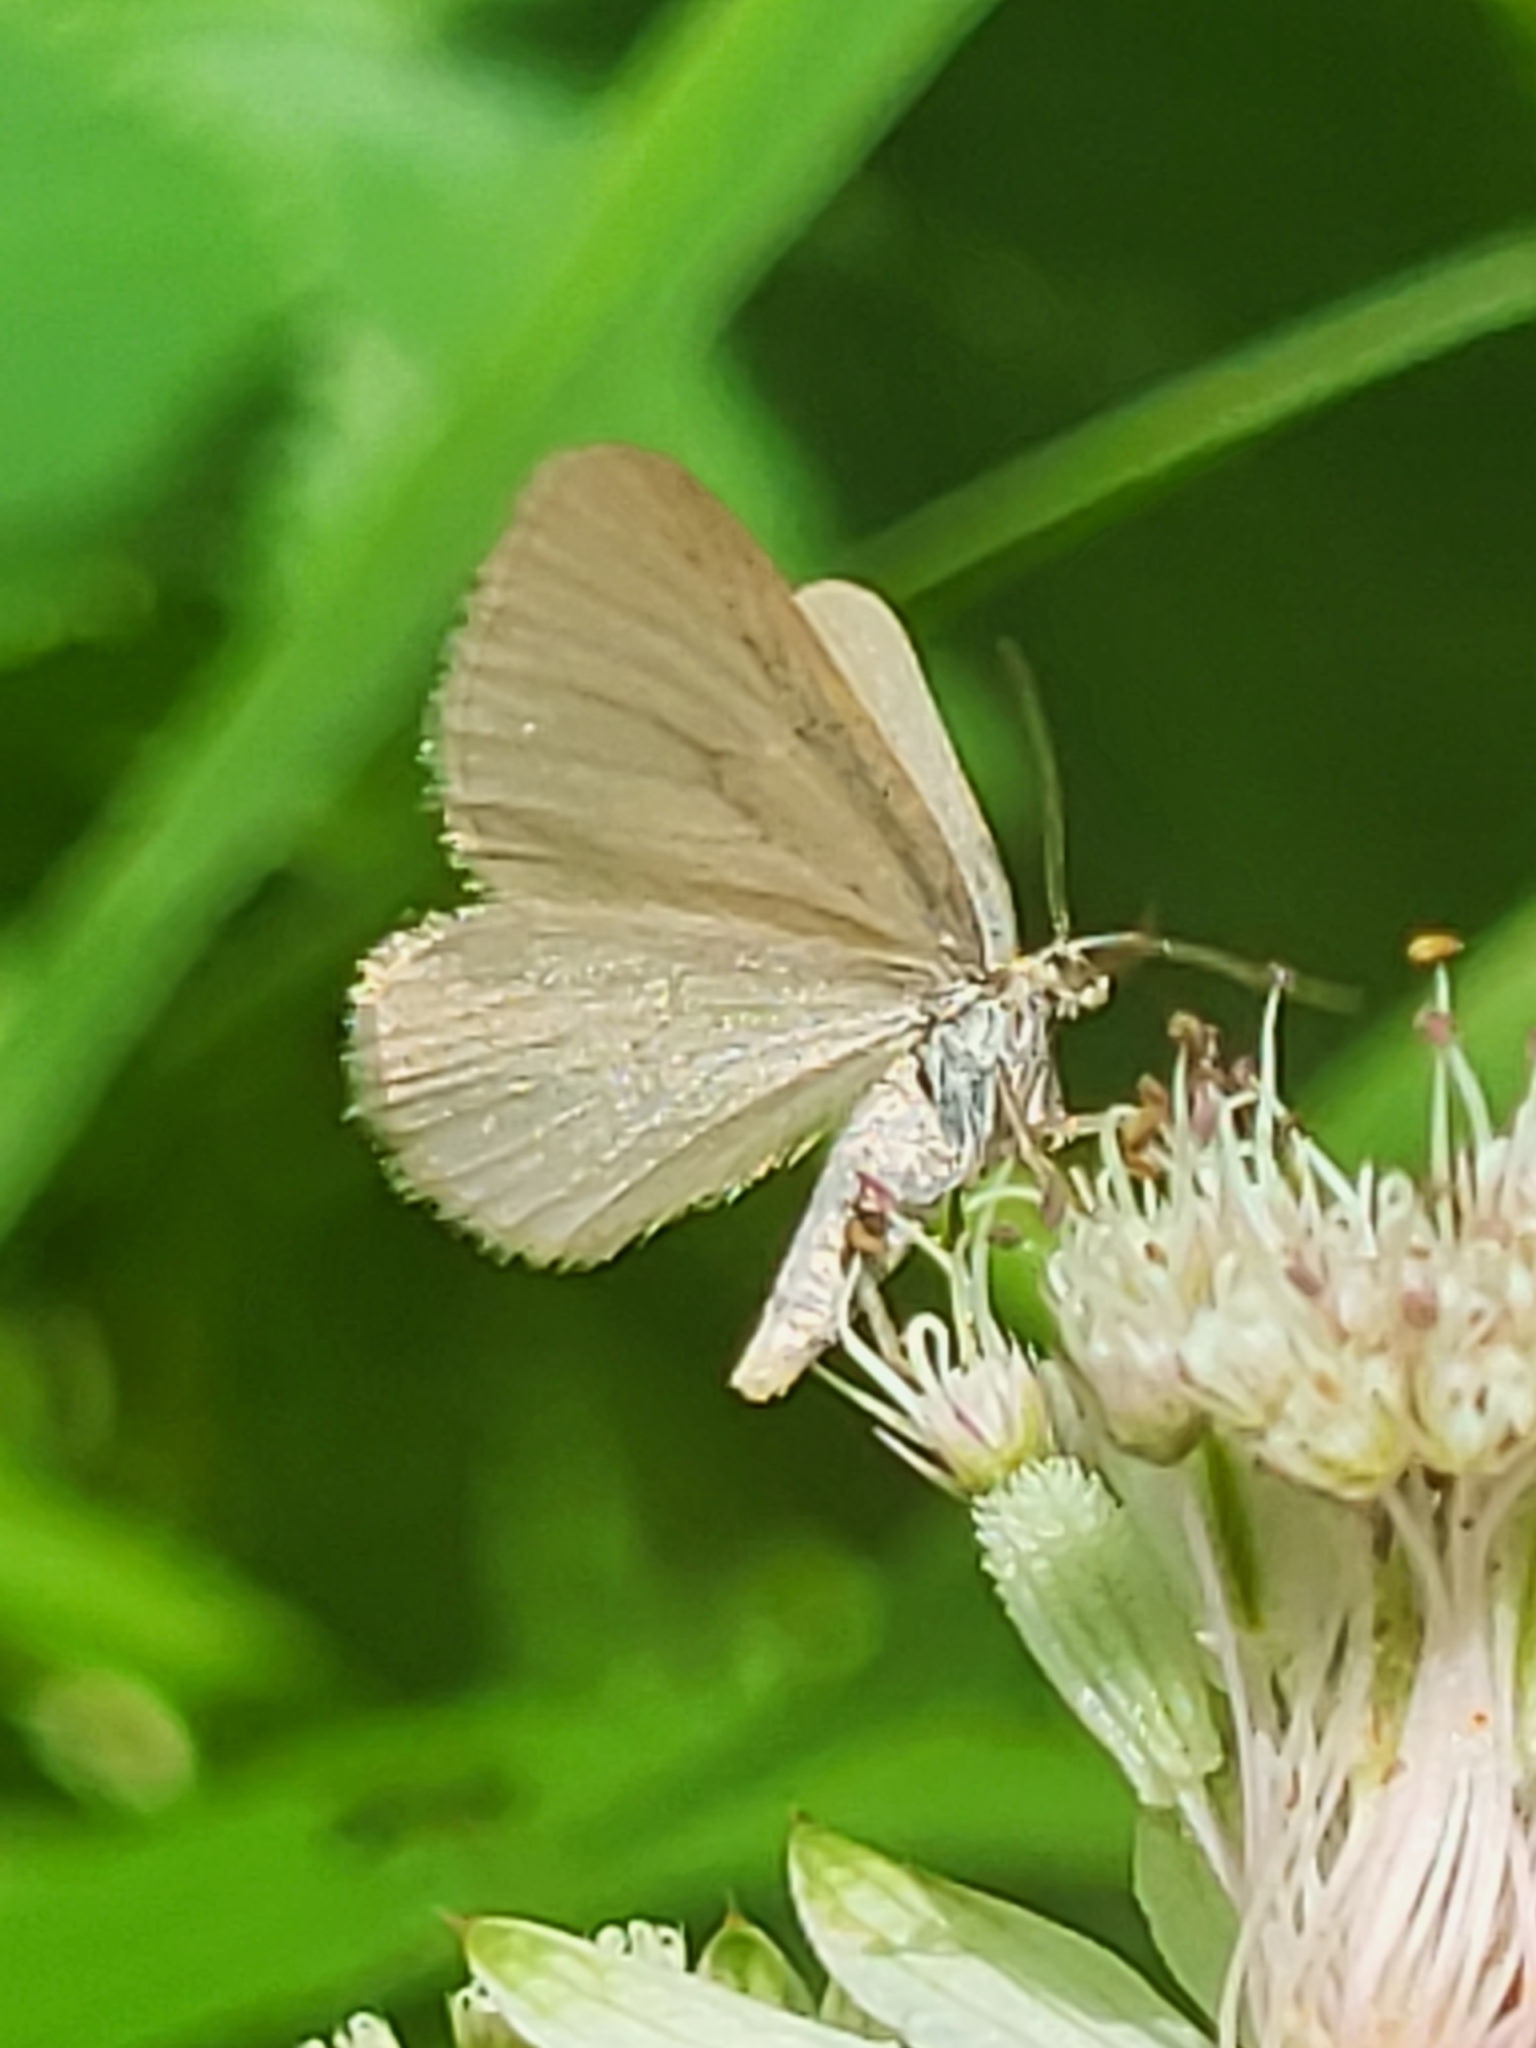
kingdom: Animalia
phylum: Arthropoda
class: Insecta
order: Lepidoptera
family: Geometridae
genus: Minoa
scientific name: Minoa murinata
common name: Drab looper
